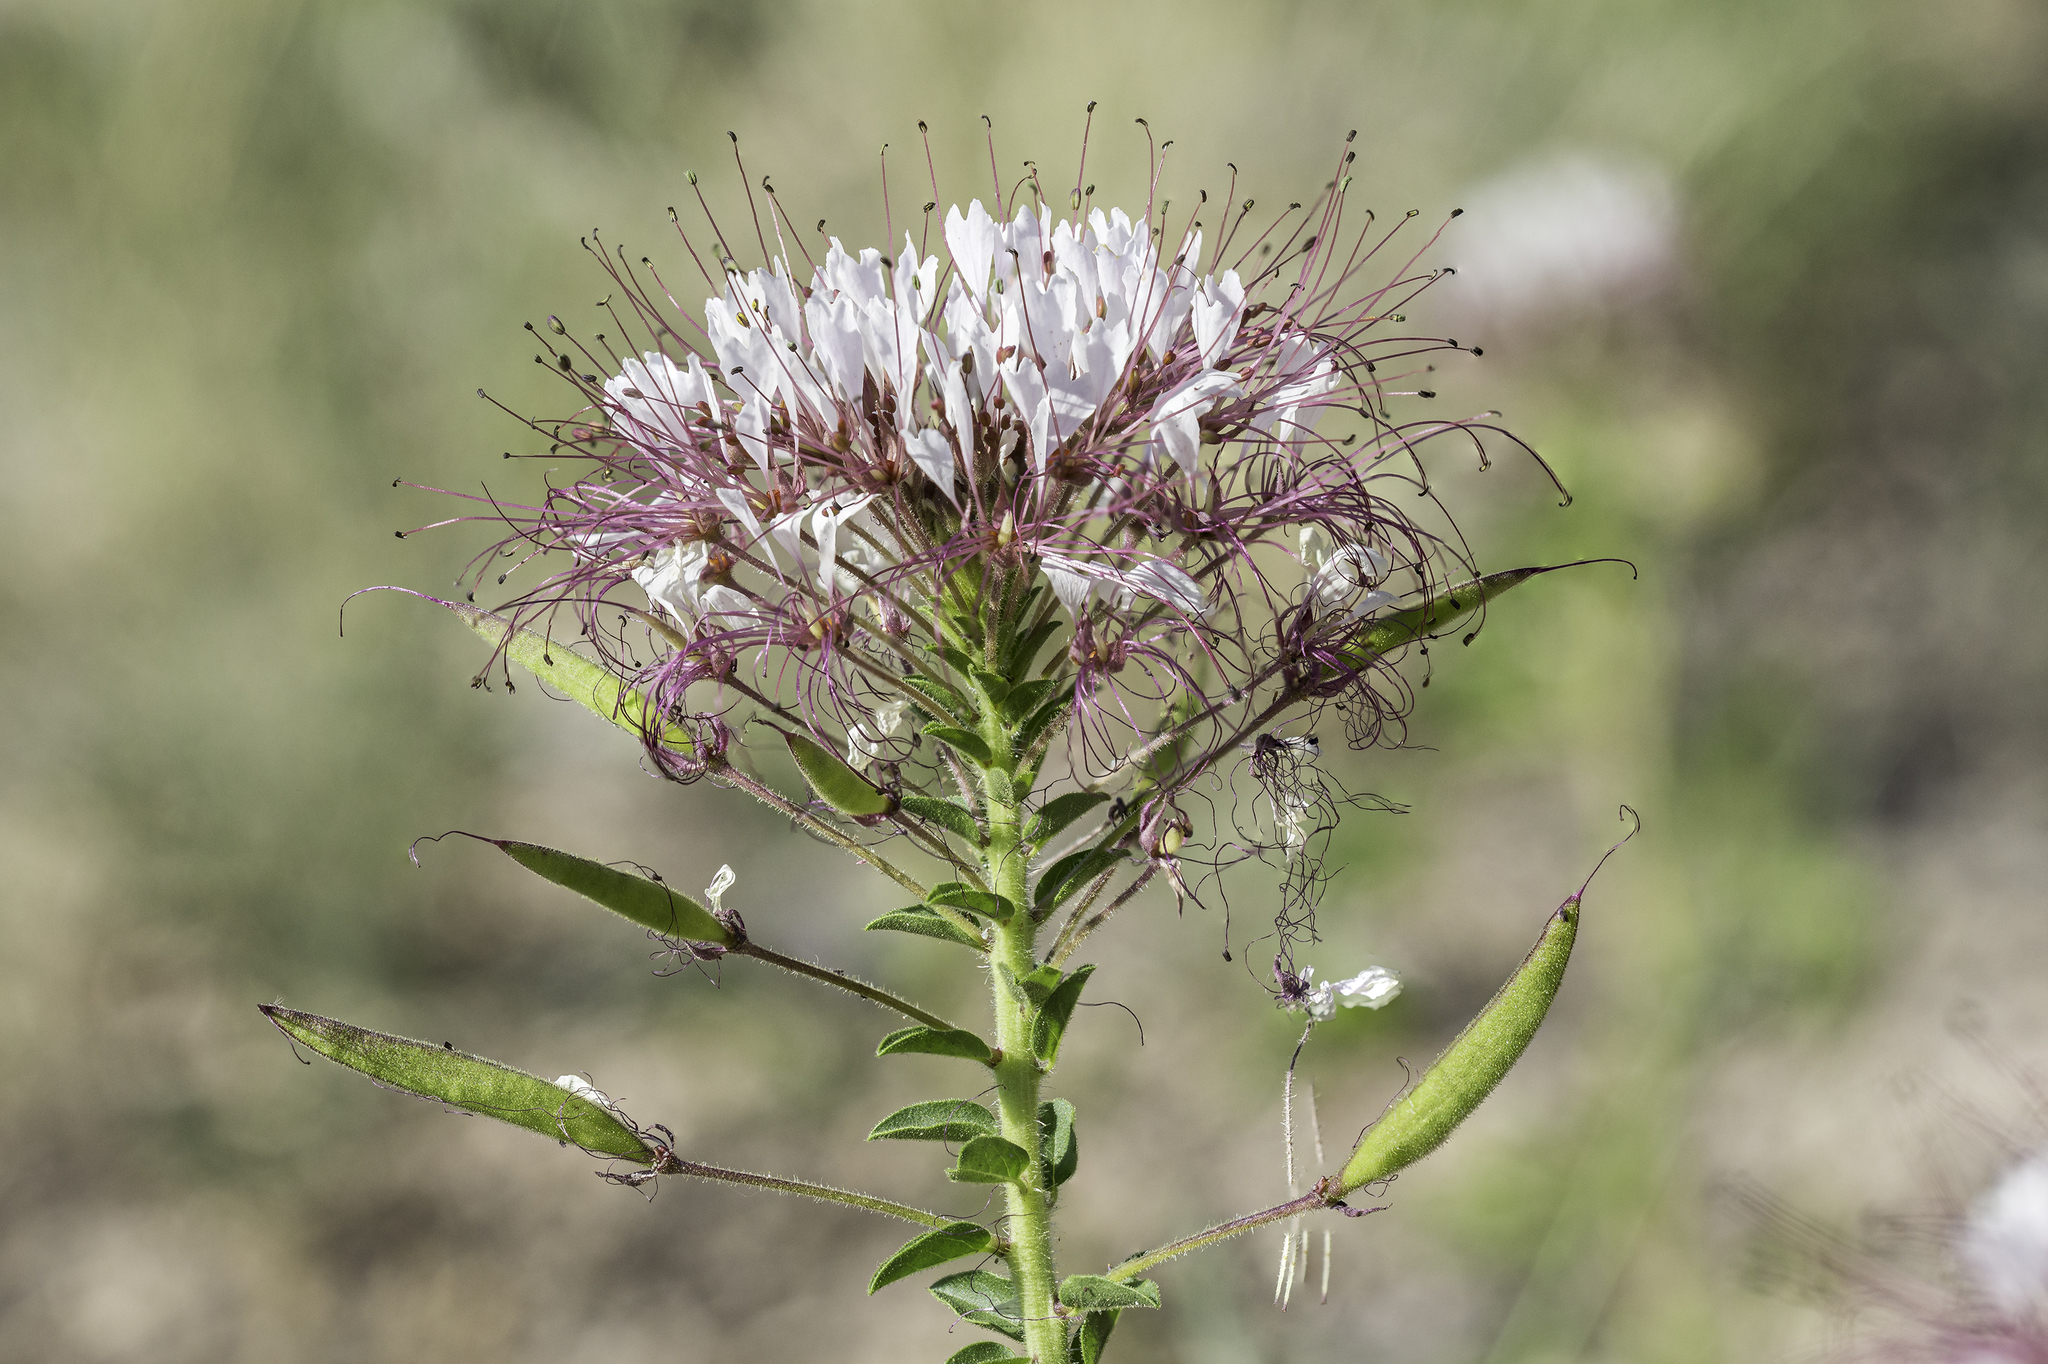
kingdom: Plantae
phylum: Tracheophyta
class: Magnoliopsida
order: Brassicales
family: Cleomaceae
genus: Polanisia
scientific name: Polanisia dodecandra
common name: Clammyweed
